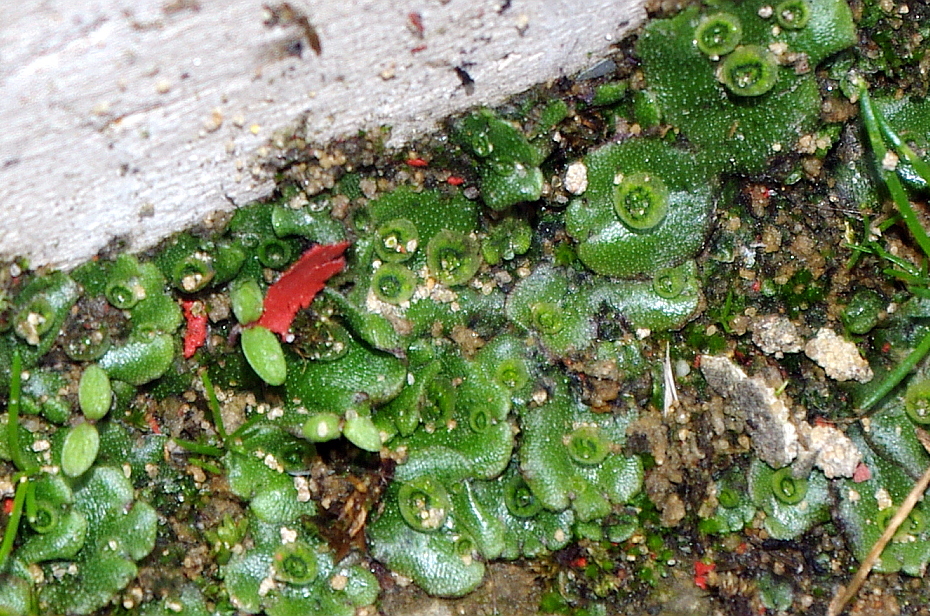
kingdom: Plantae
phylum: Marchantiophyta
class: Marchantiopsida
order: Marchantiales
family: Marchantiaceae
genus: Marchantia
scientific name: Marchantia polymorpha
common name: Common liverwort
